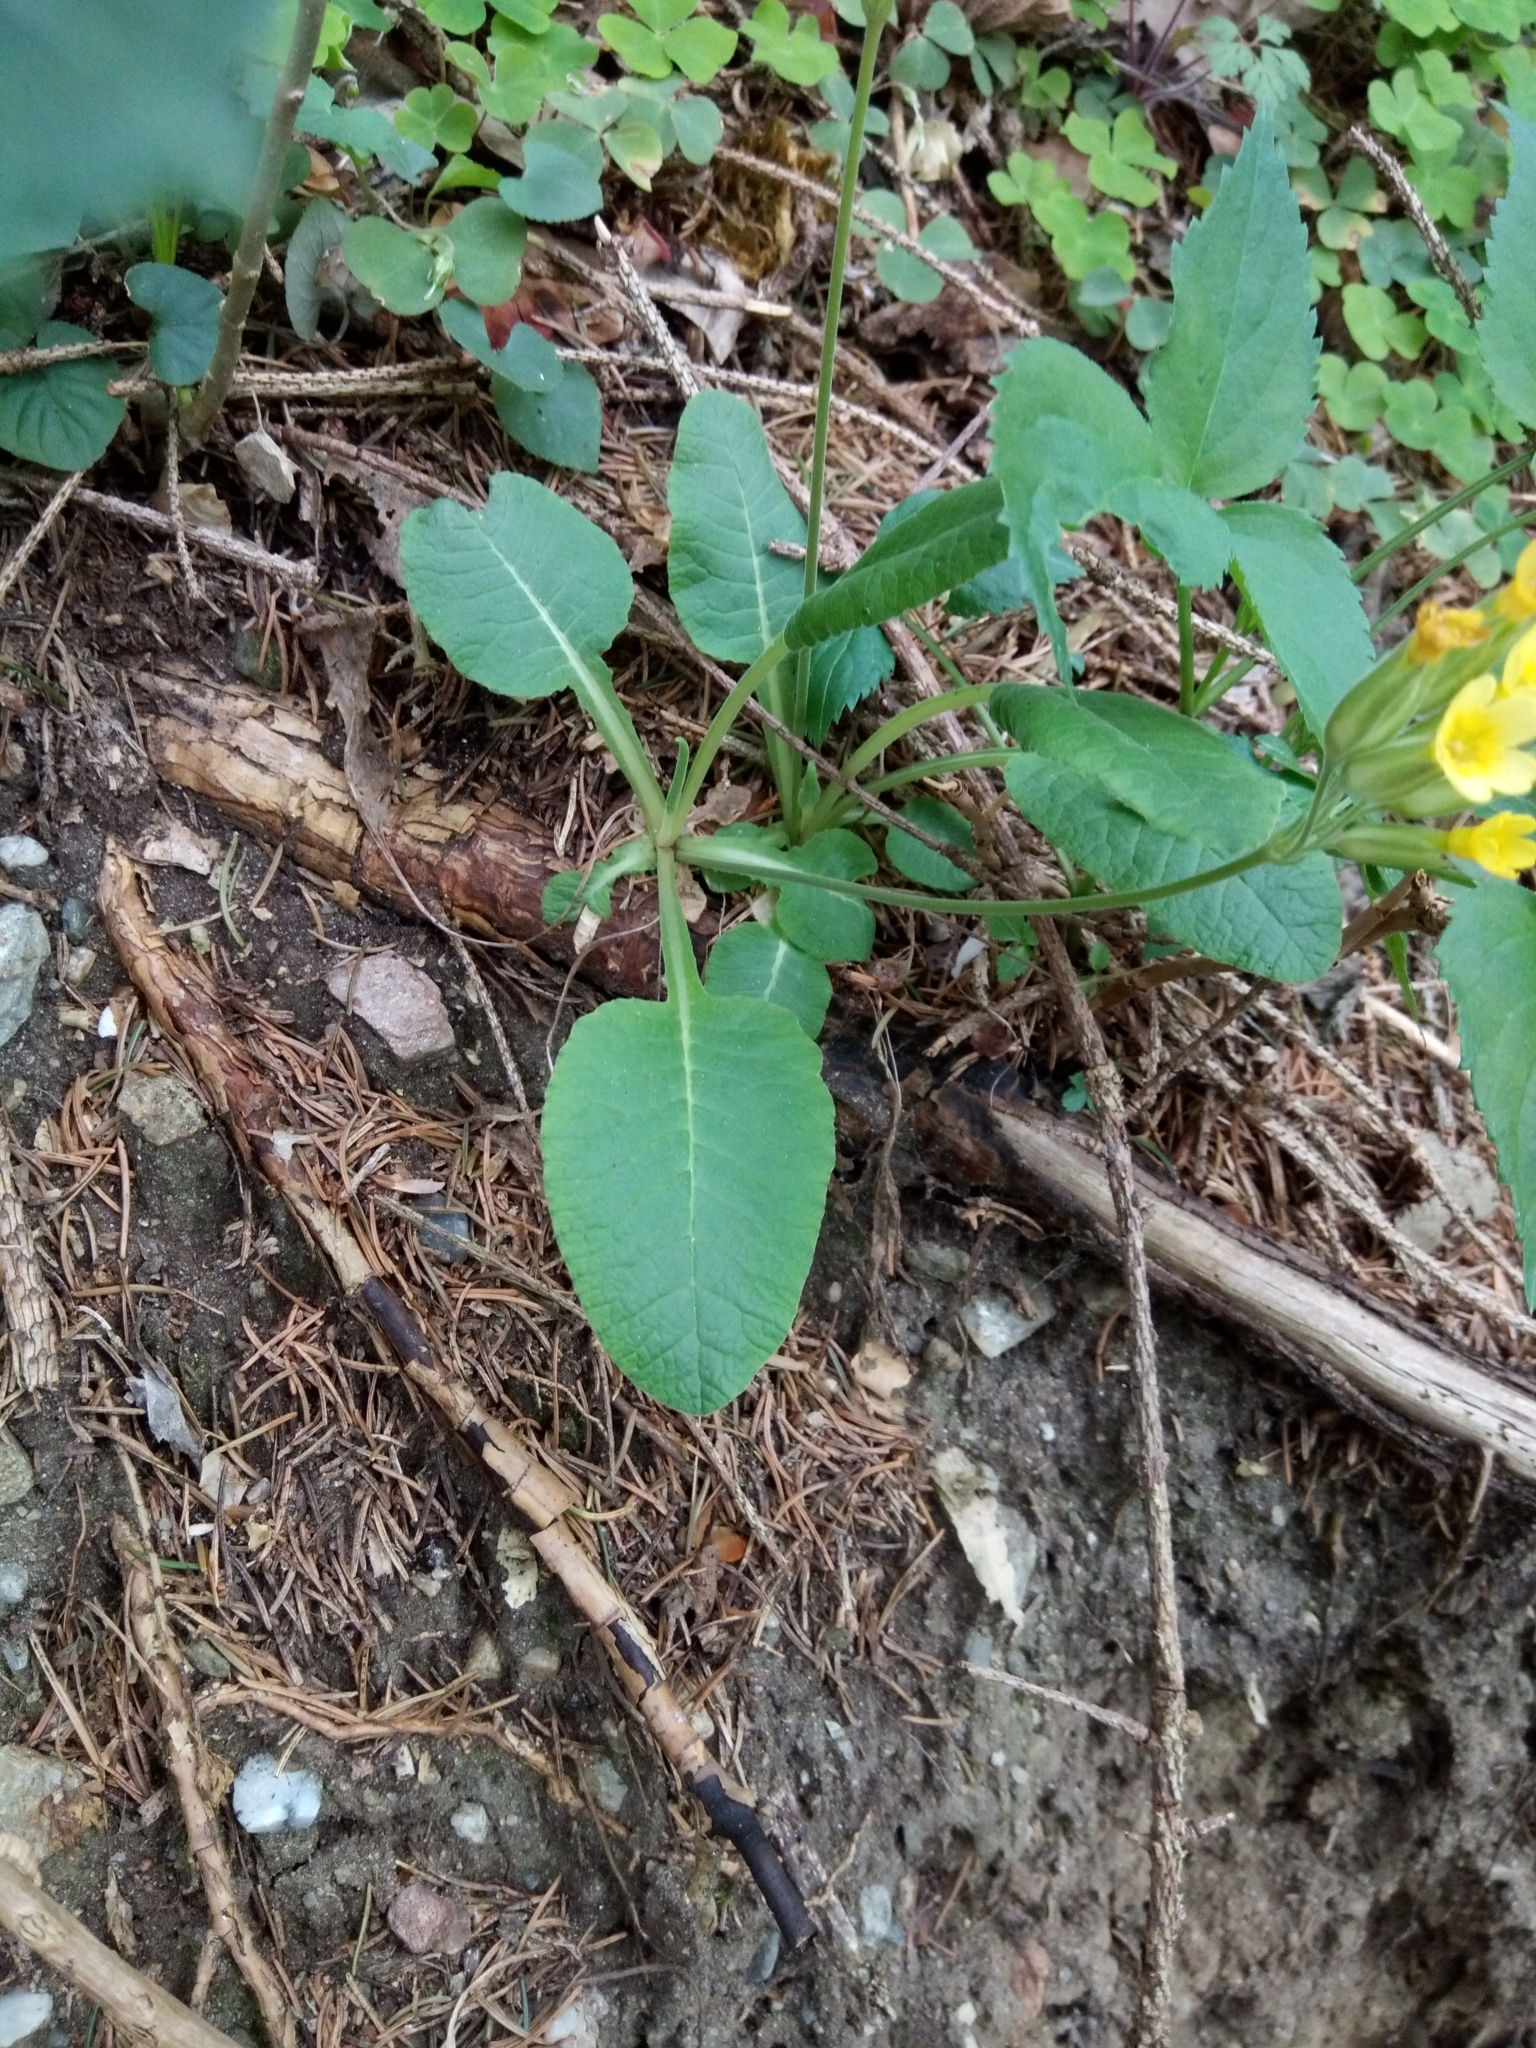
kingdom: Plantae
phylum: Tracheophyta
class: Magnoliopsida
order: Ericales
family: Primulaceae
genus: Primula
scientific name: Primula veris
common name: Cowslip
